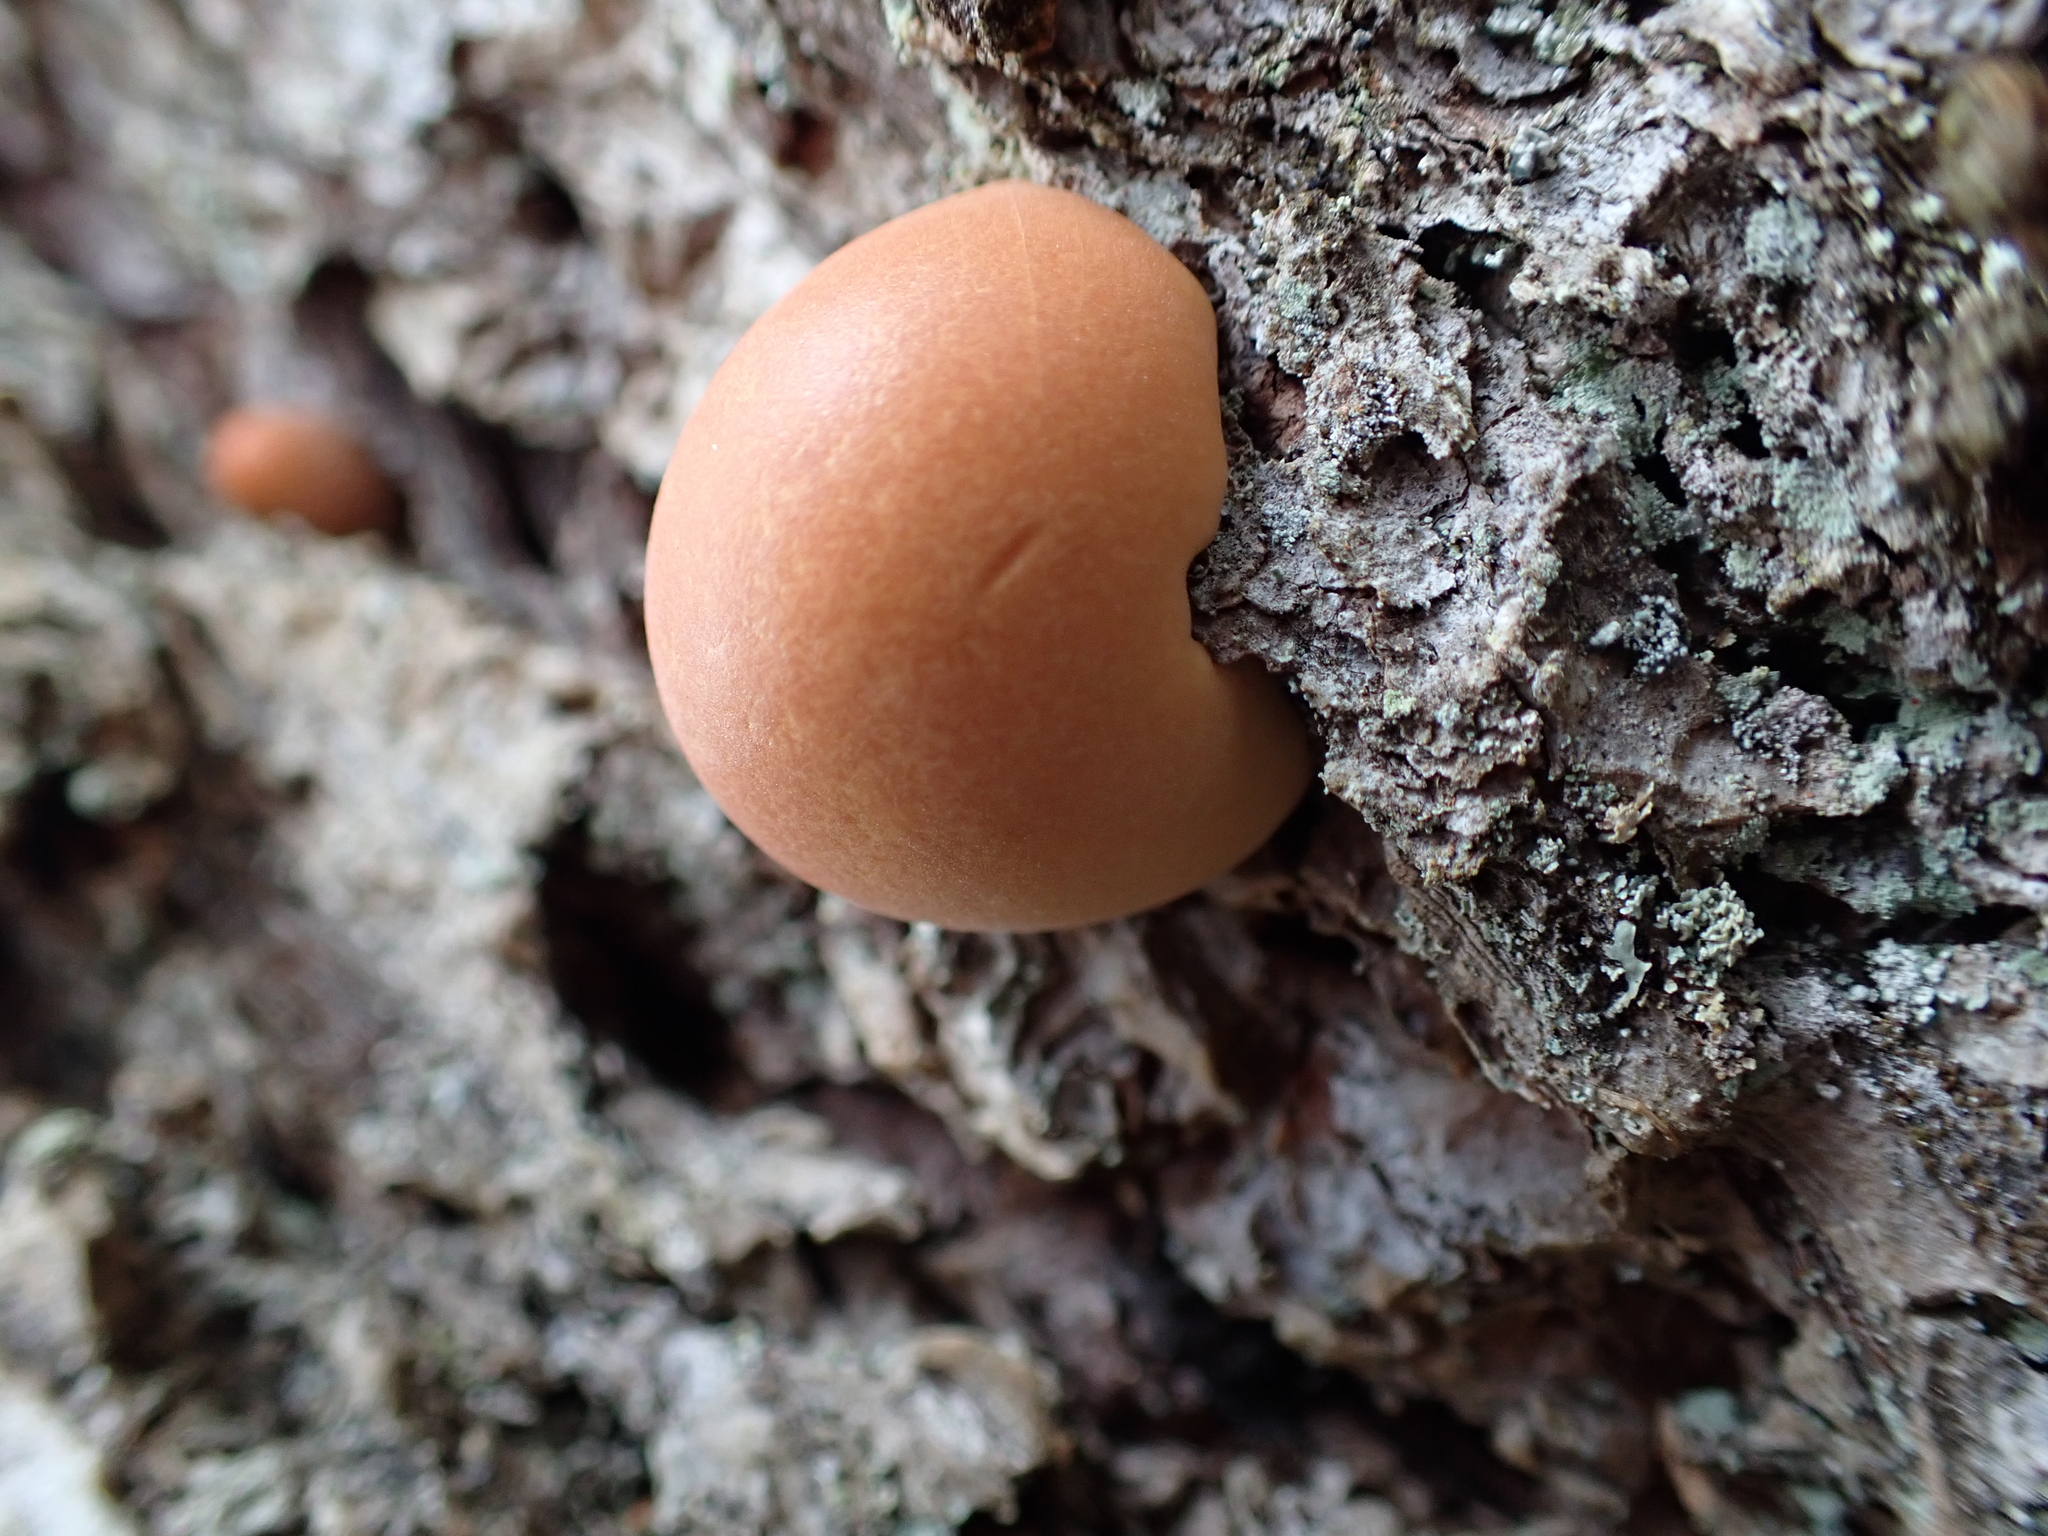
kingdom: Fungi
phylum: Basidiomycota
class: Agaricomycetes
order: Polyporales
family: Polyporaceae
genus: Cryptoporus
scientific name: Cryptoporus volvatus
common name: Veiled polypore
